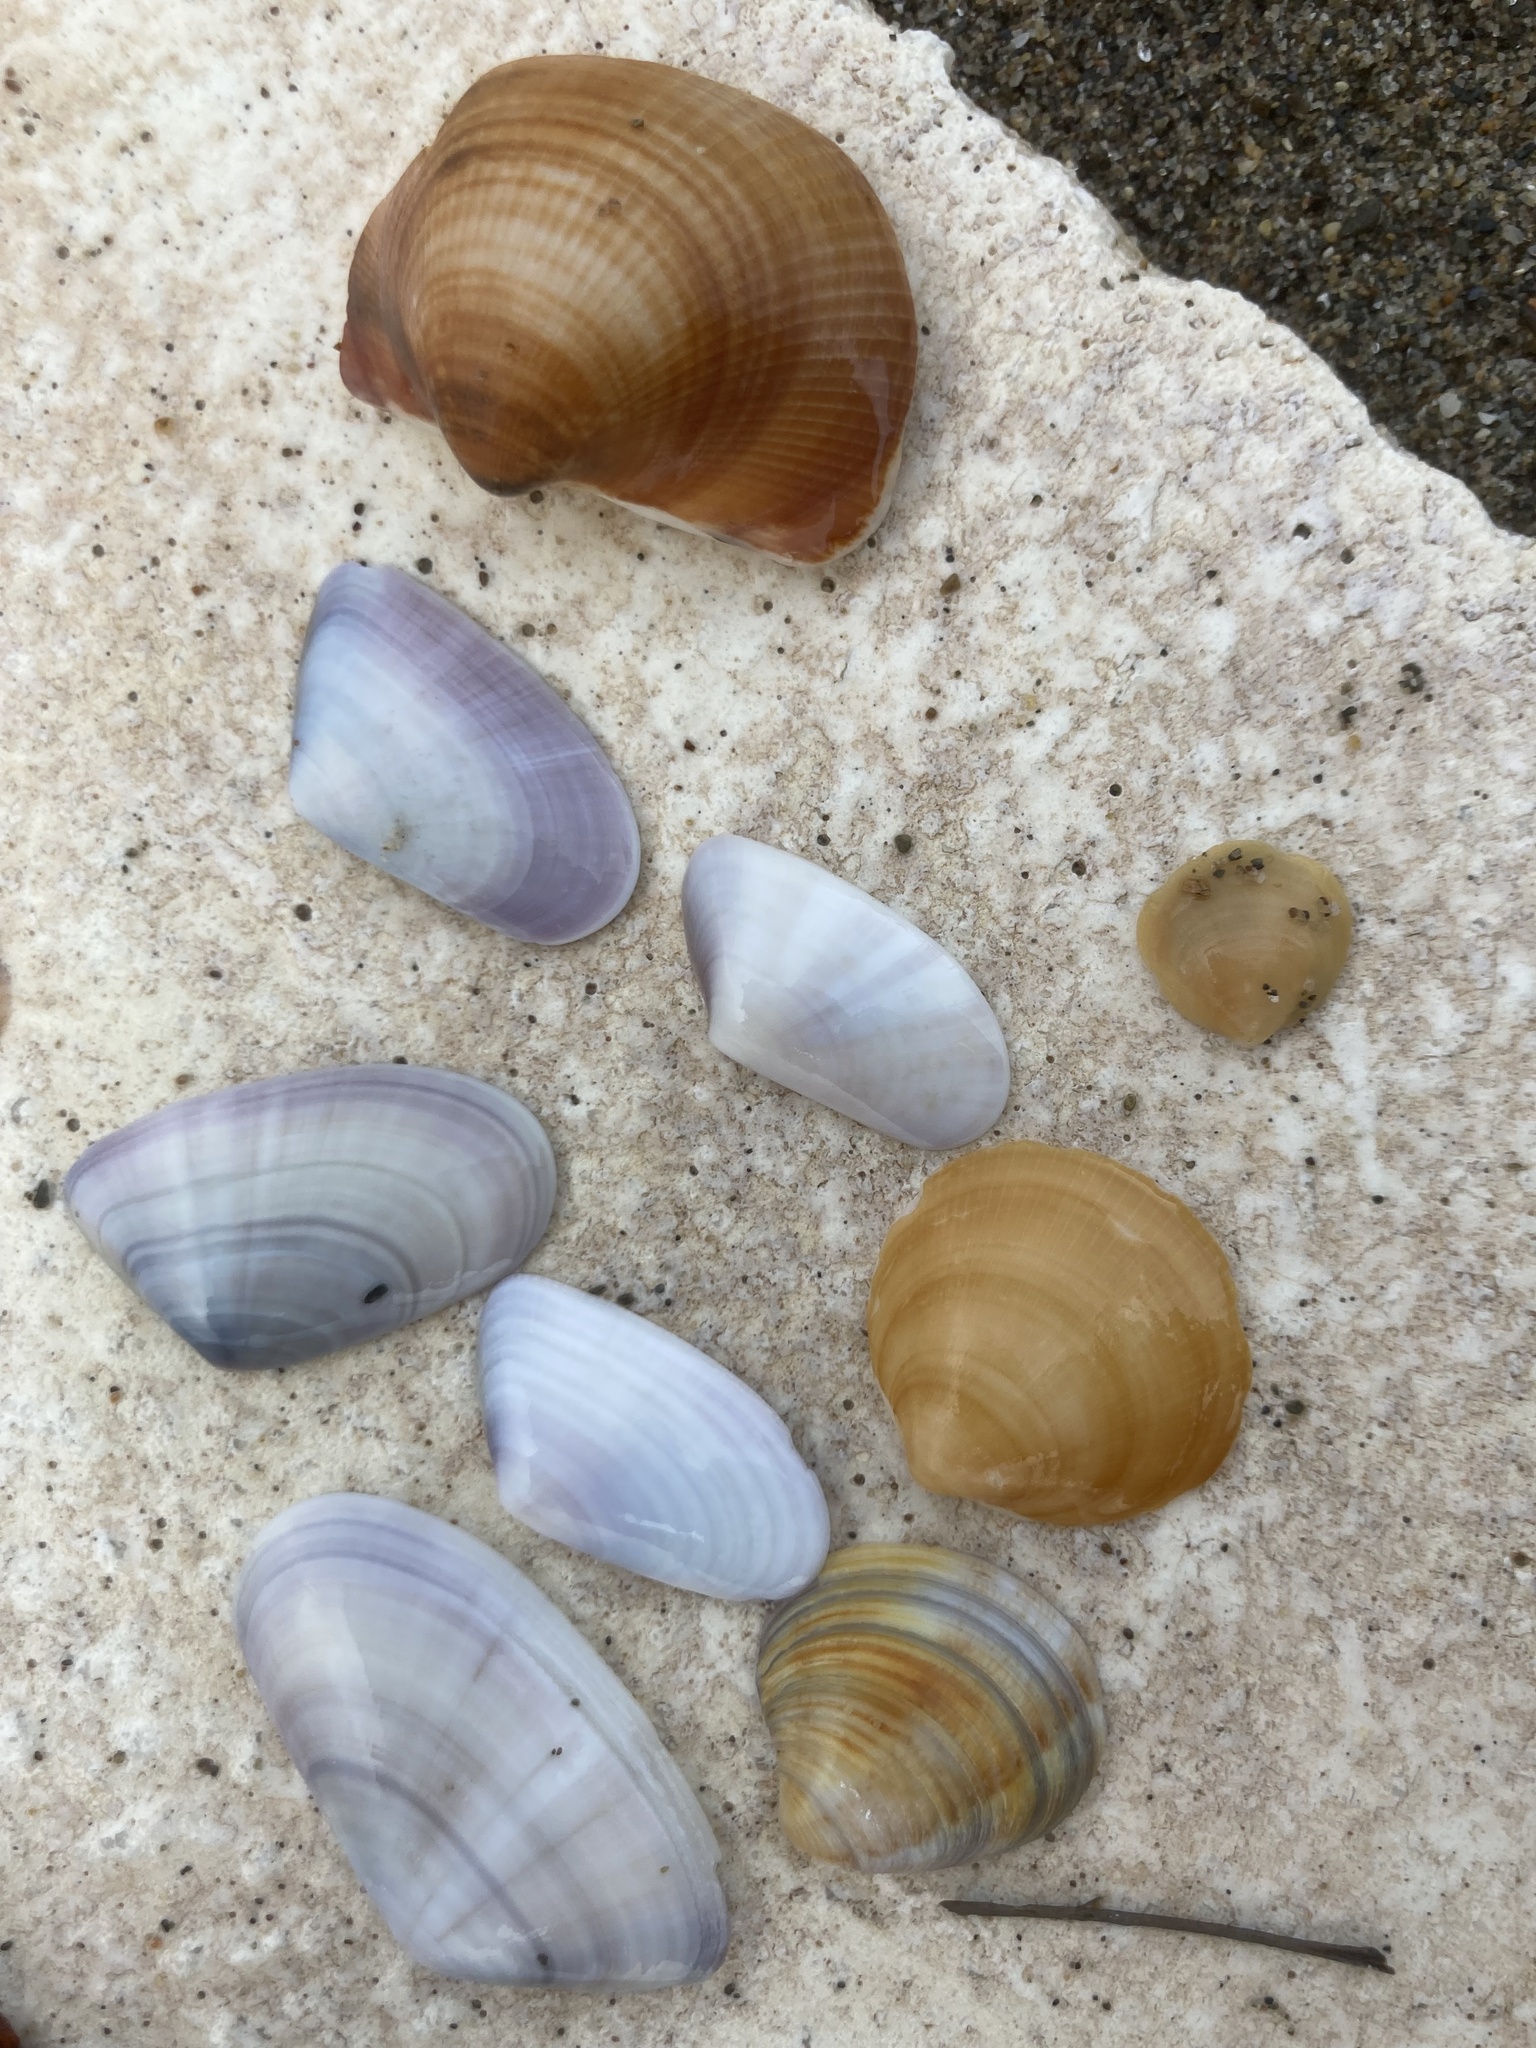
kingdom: Animalia
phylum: Mollusca
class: Bivalvia
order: Cardiida
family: Donacidae
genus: Donax
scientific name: Donax trunculus
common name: Truncate donax
